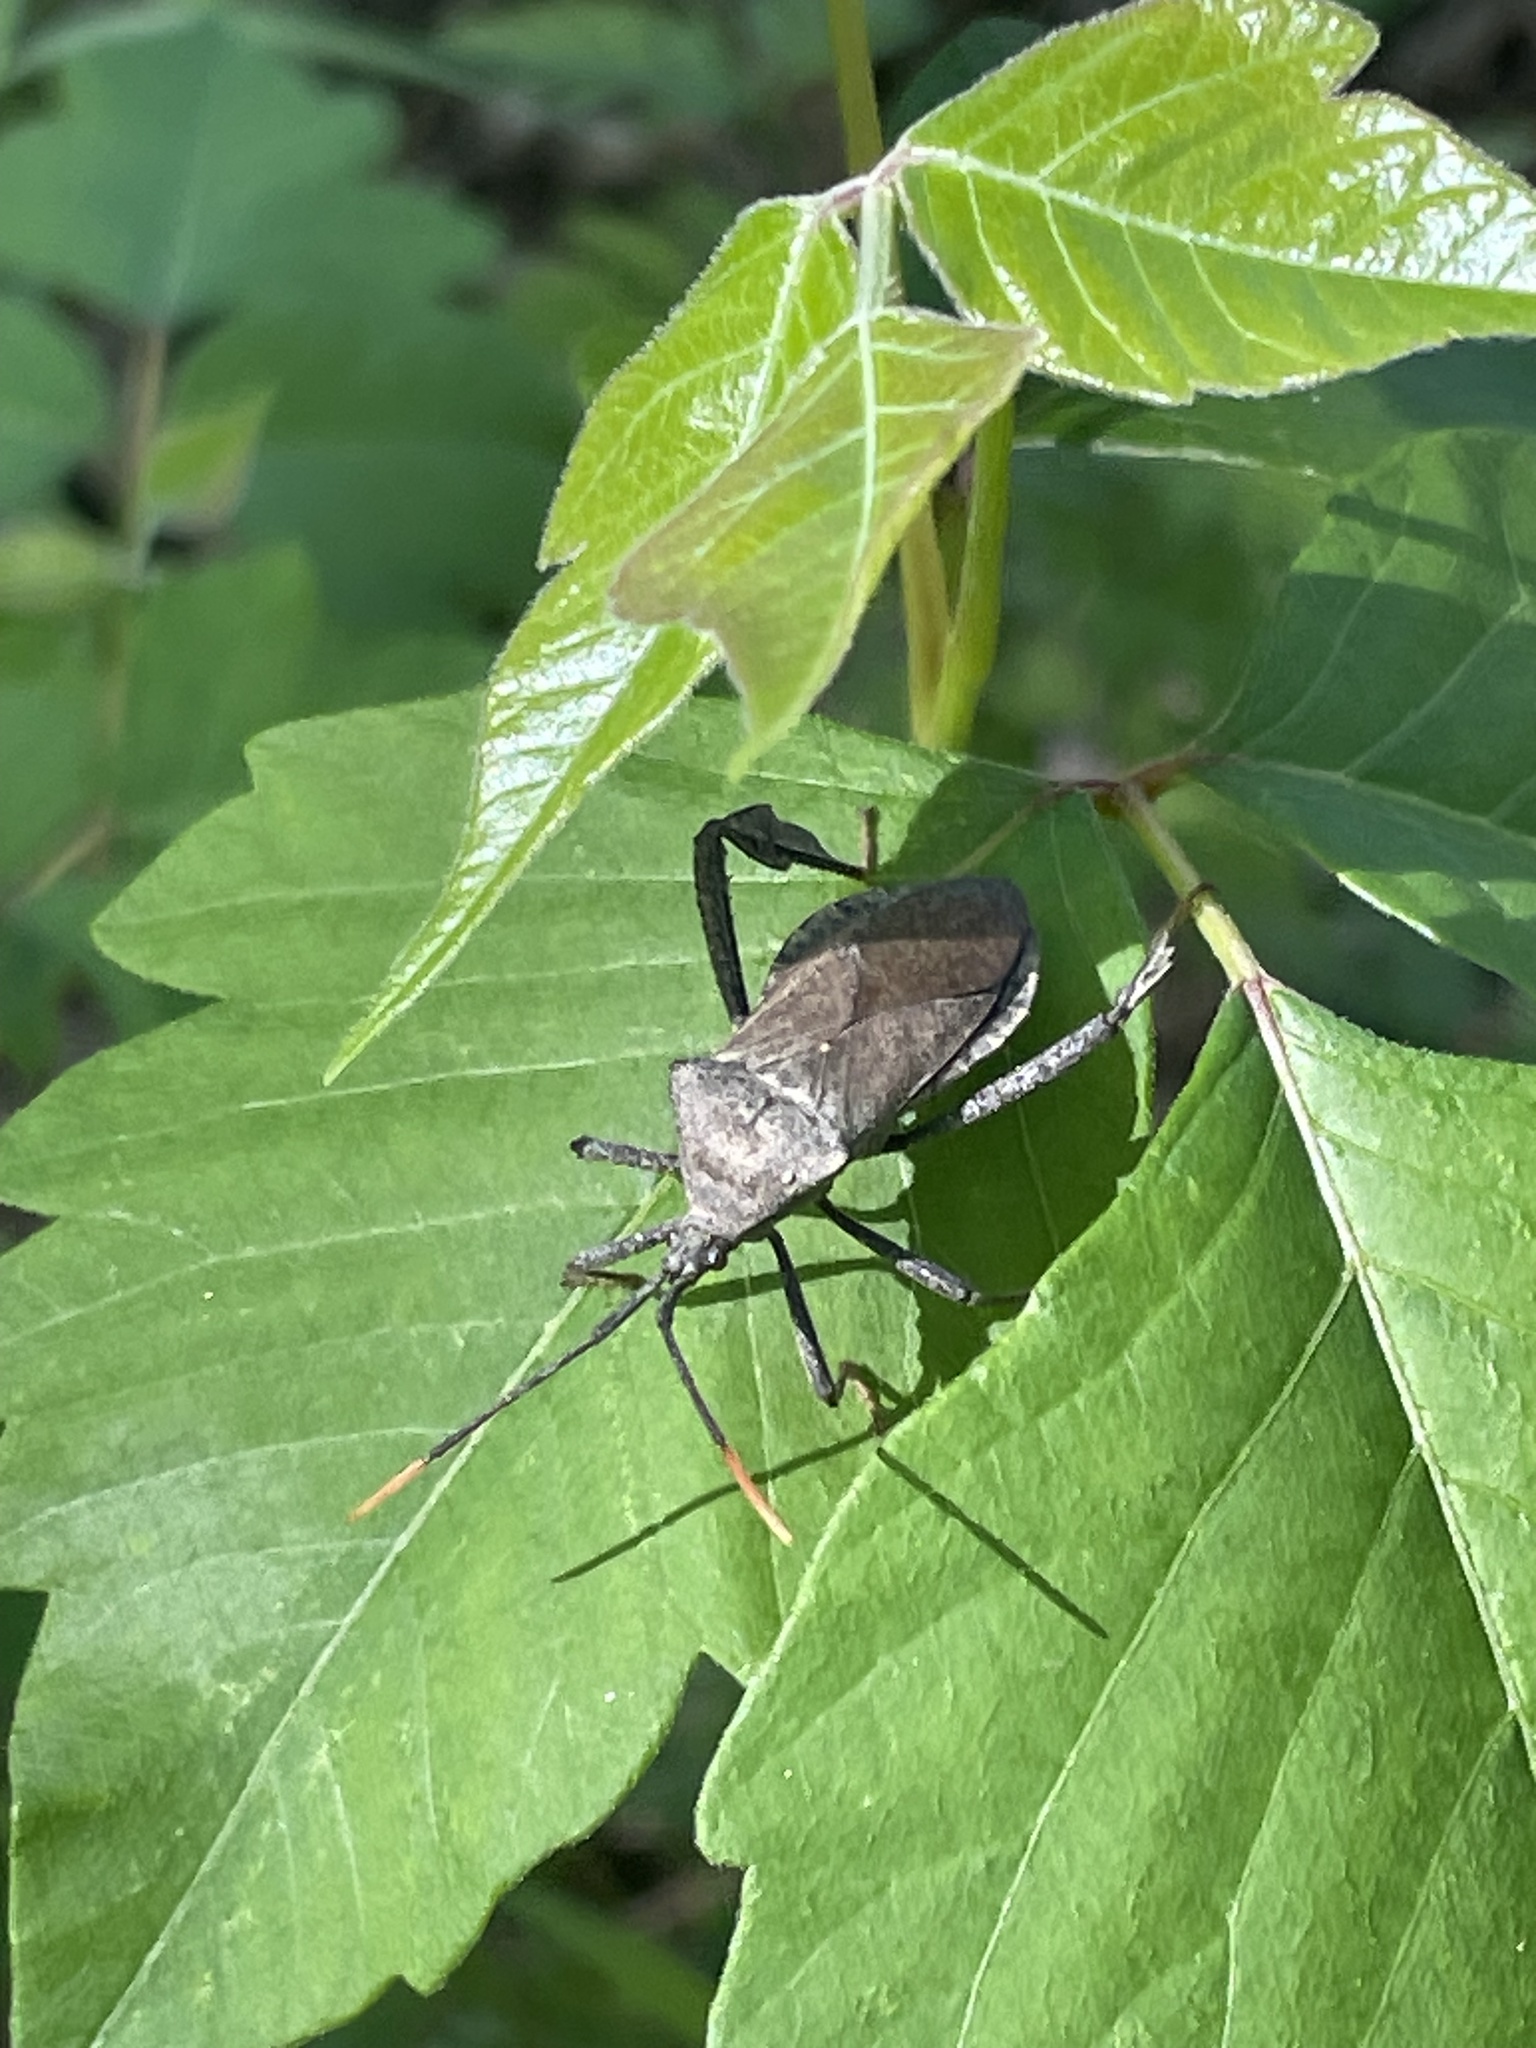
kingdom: Animalia
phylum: Arthropoda
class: Insecta
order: Hemiptera
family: Coreidae
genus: Acanthocephala
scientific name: Acanthocephala terminalis
